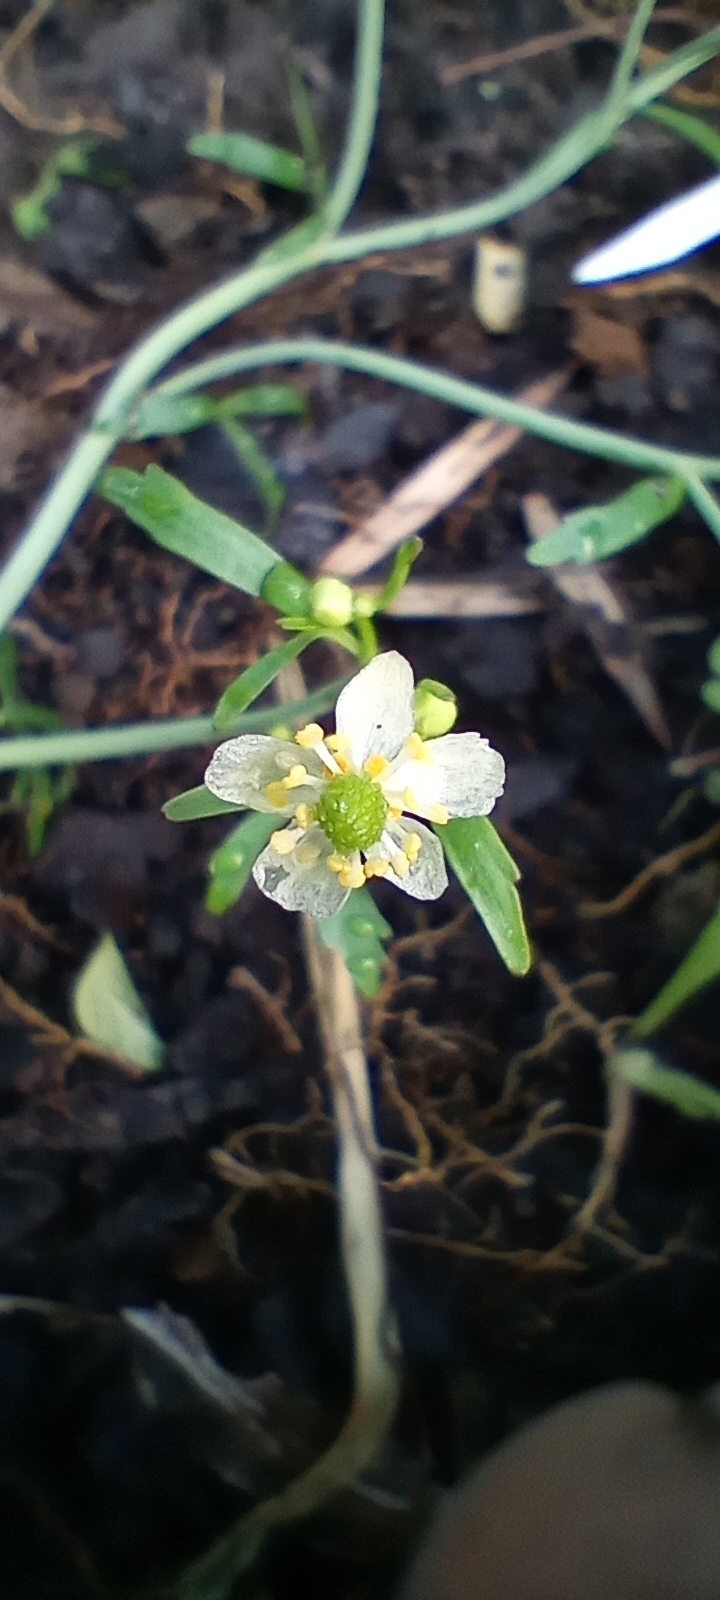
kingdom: Plantae
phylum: Tracheophyta
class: Magnoliopsida
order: Ranunculales
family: Ranunculaceae
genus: Ranunculus
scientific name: Ranunculus apiifolius
